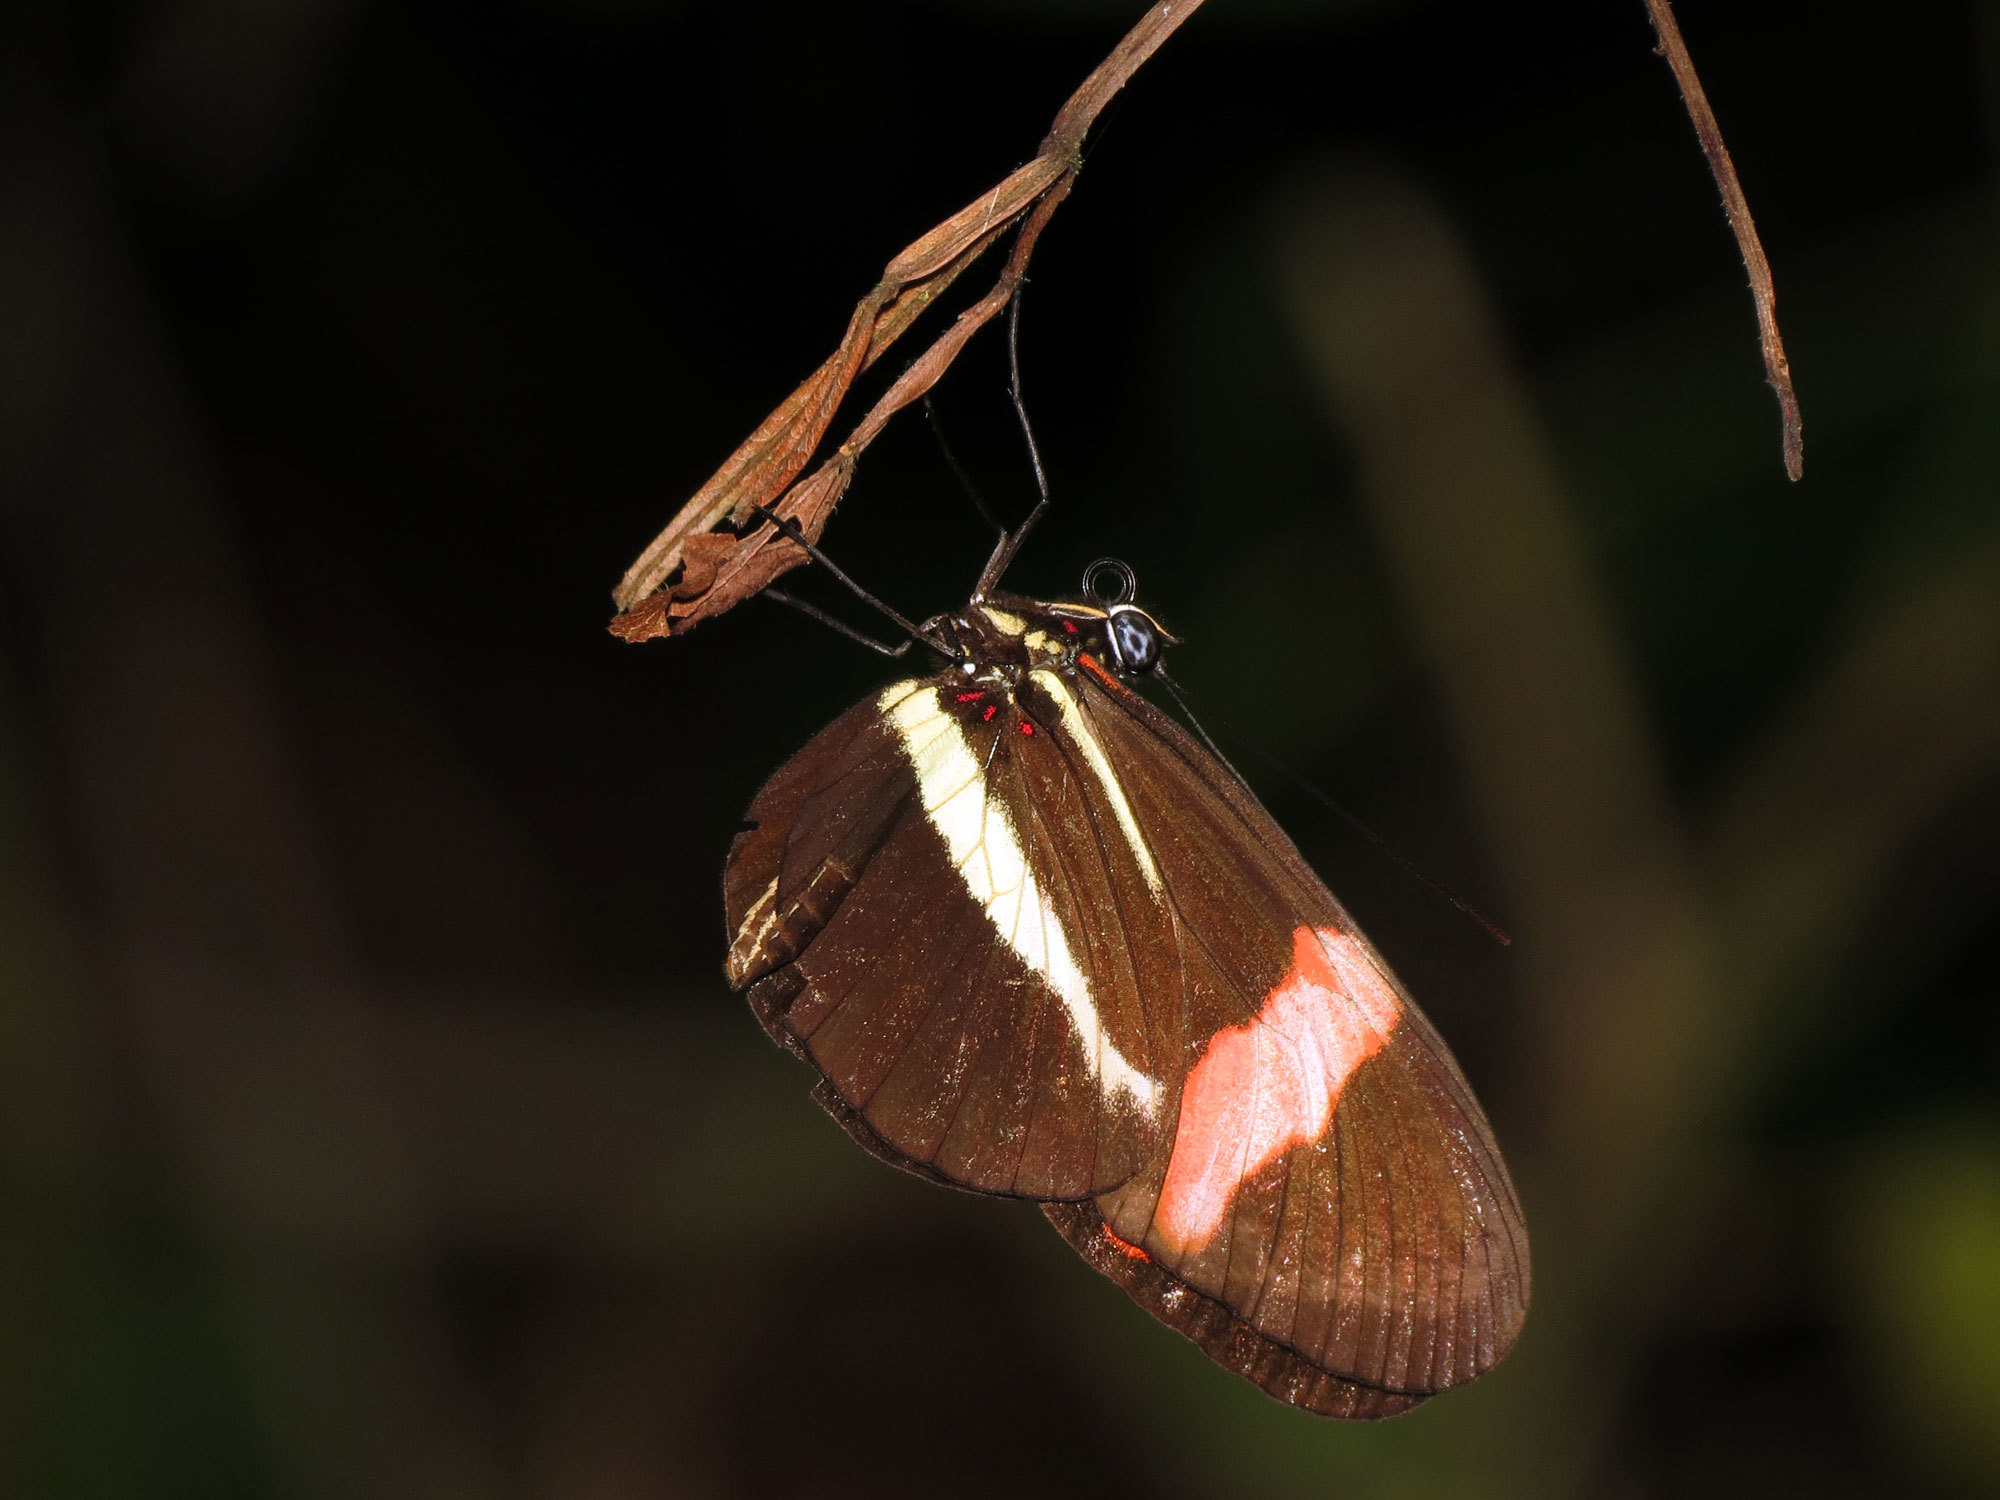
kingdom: Animalia
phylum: Arthropoda
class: Insecta
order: Lepidoptera
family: Nymphalidae
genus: Tirumala
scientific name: Tirumala petiverana
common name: Blue monarch
